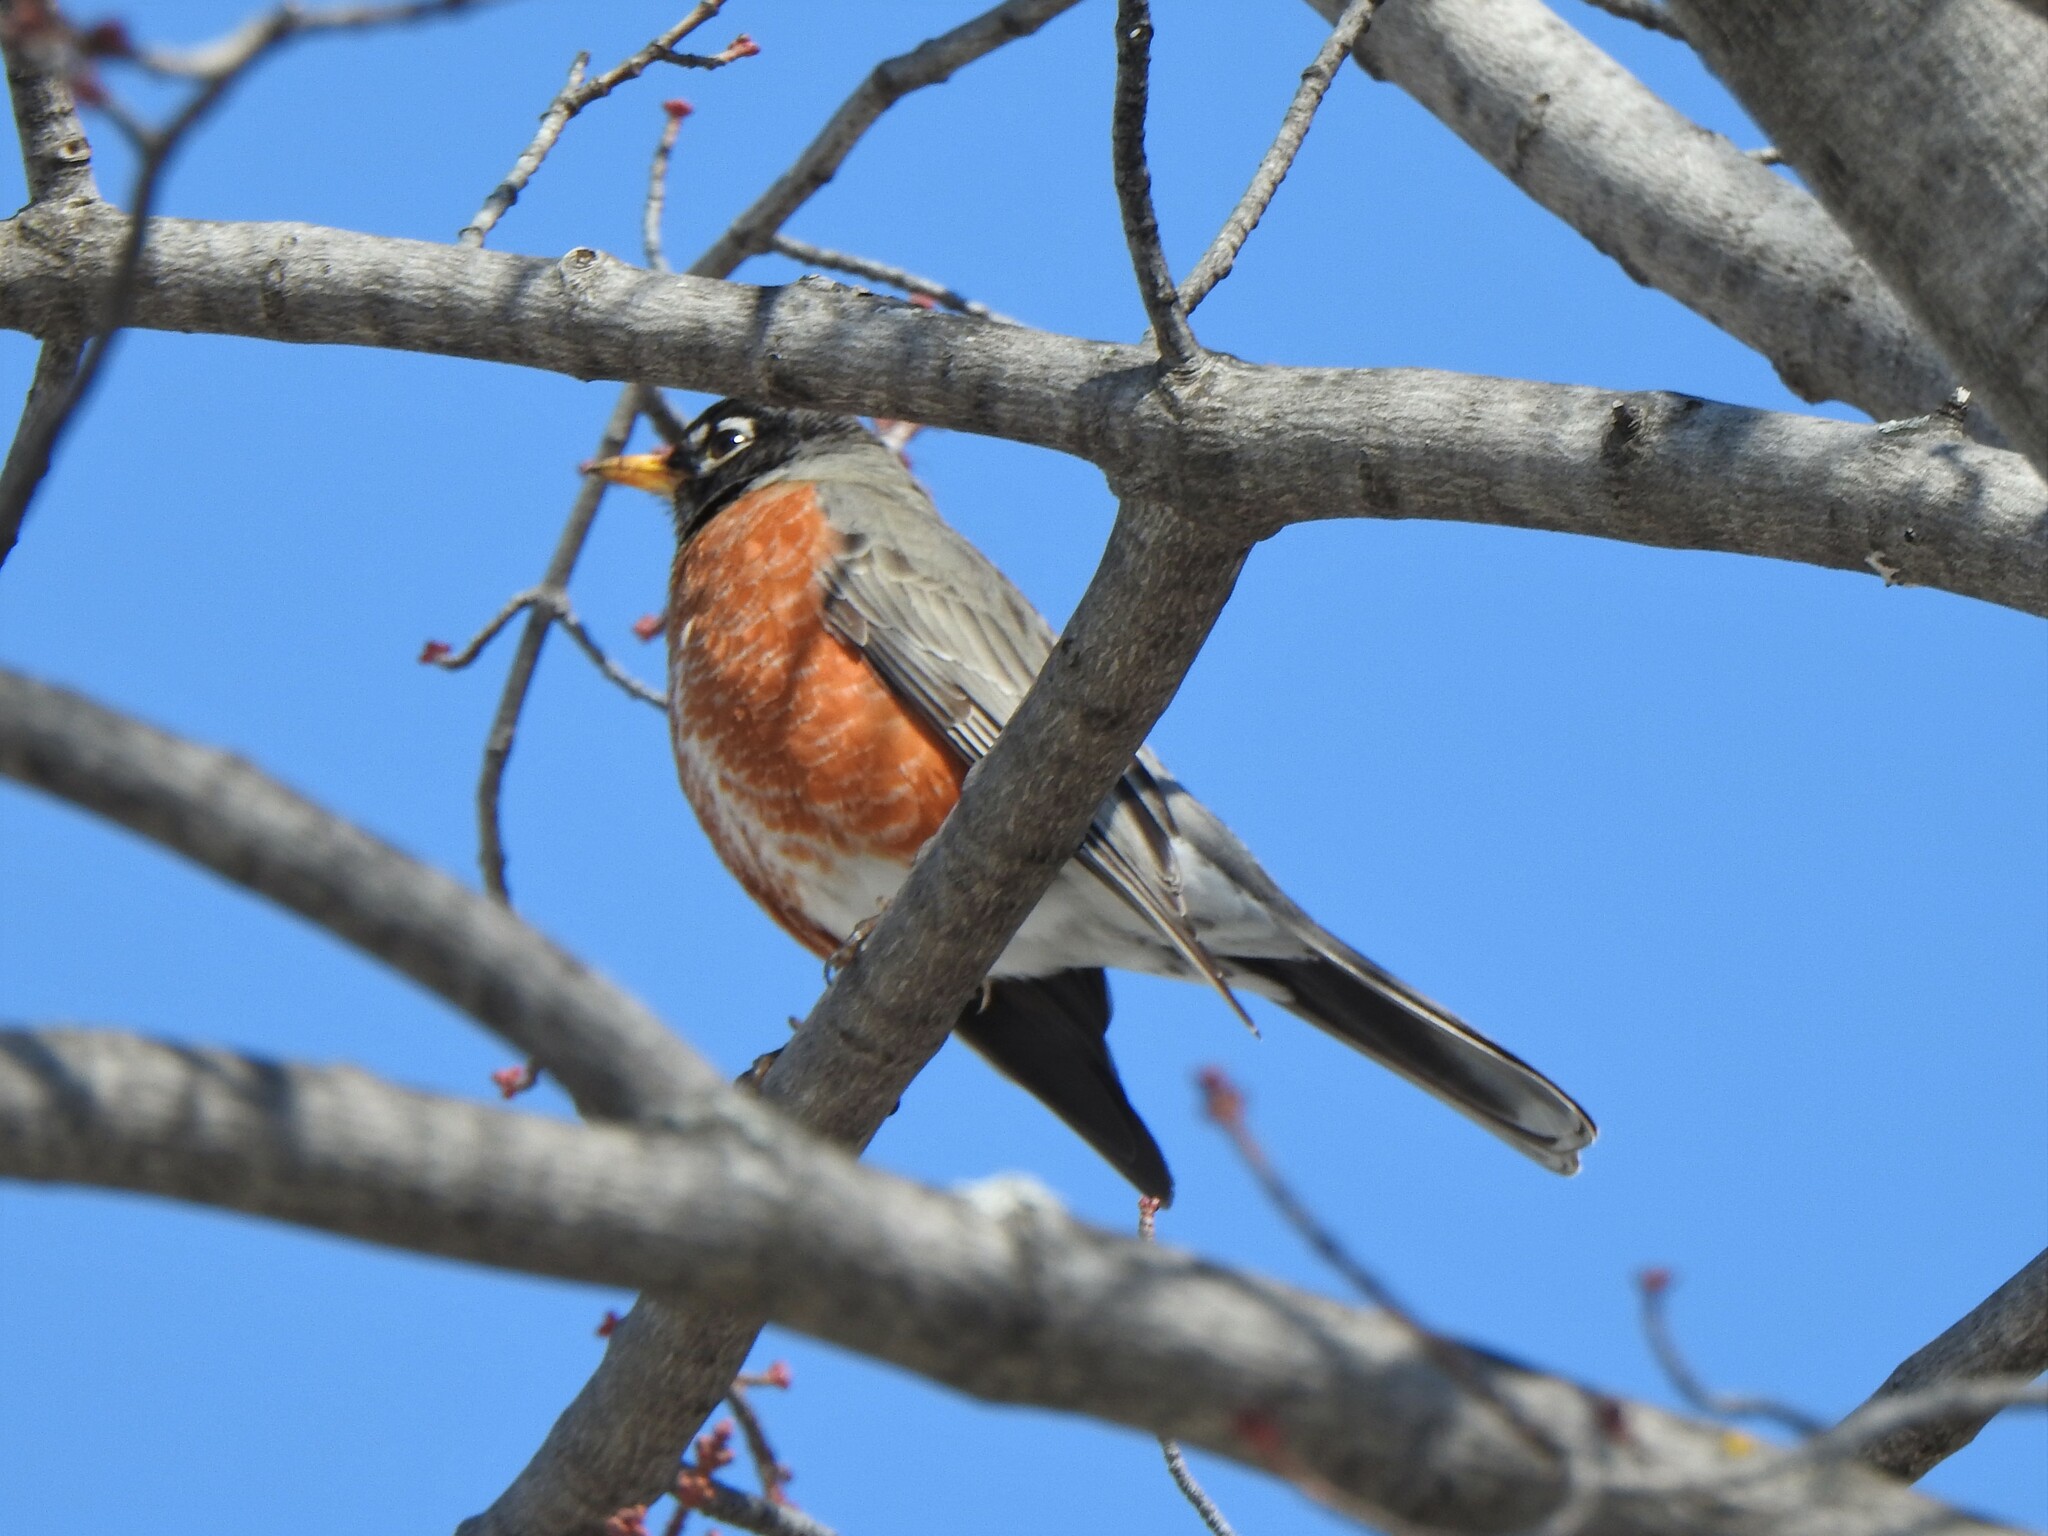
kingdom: Animalia
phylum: Chordata
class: Aves
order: Passeriformes
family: Turdidae
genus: Turdus
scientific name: Turdus migratorius
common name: American robin
